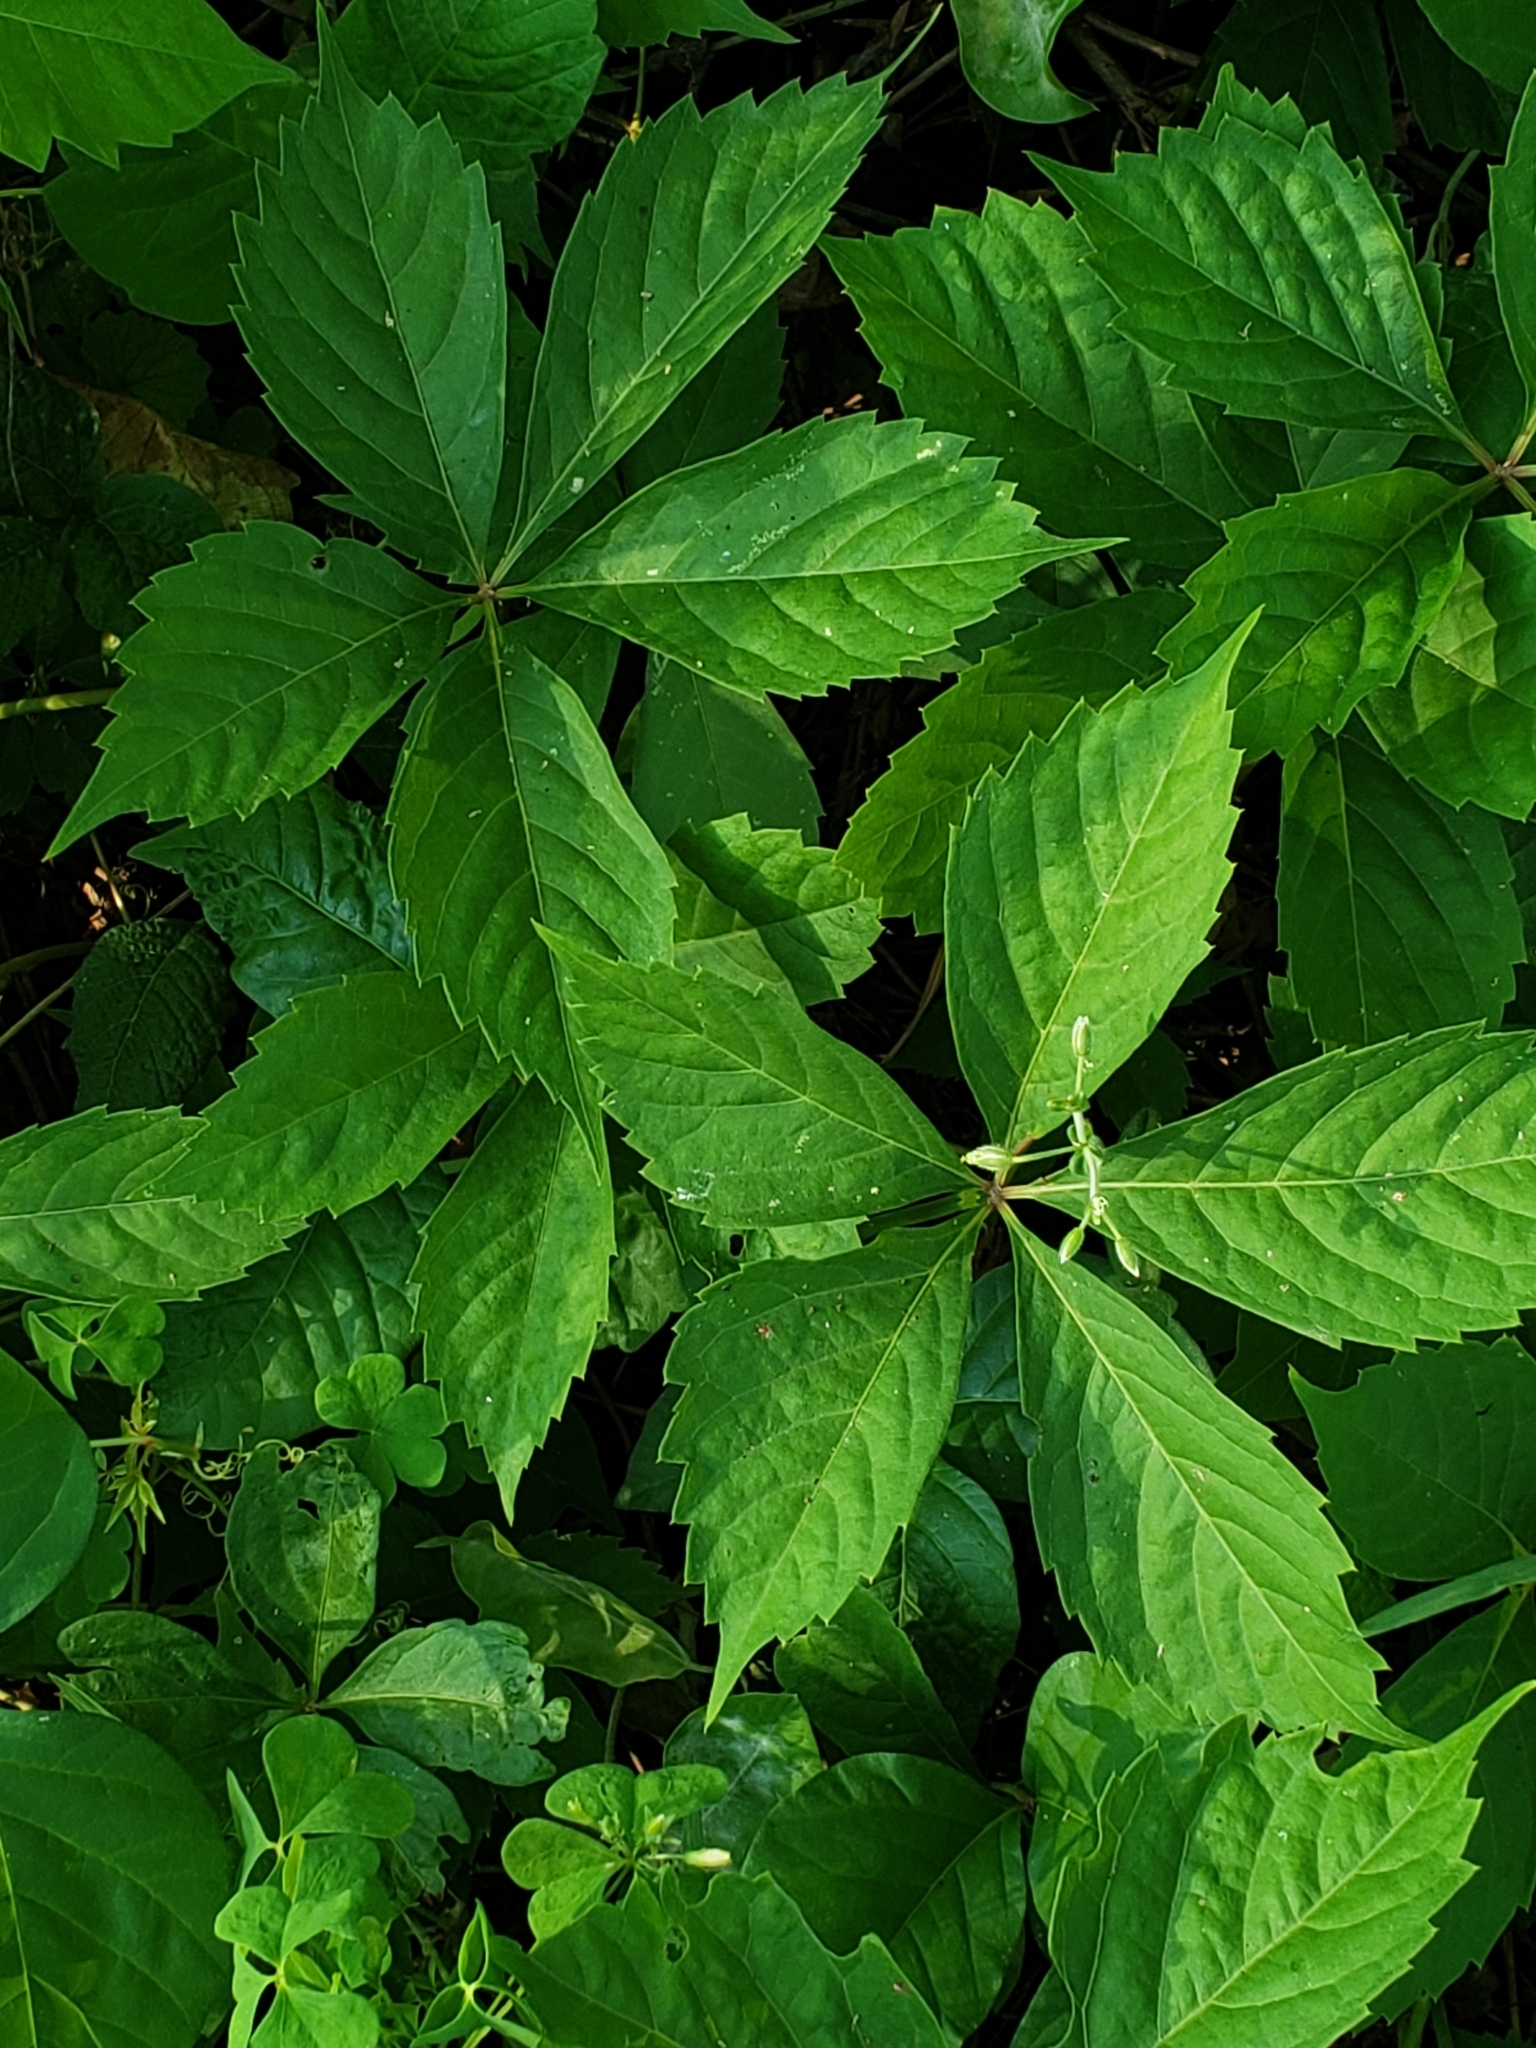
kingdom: Plantae
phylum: Tracheophyta
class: Magnoliopsida
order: Vitales
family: Vitaceae
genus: Parthenocissus
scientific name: Parthenocissus quinquefolia
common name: Virginia-creeper
